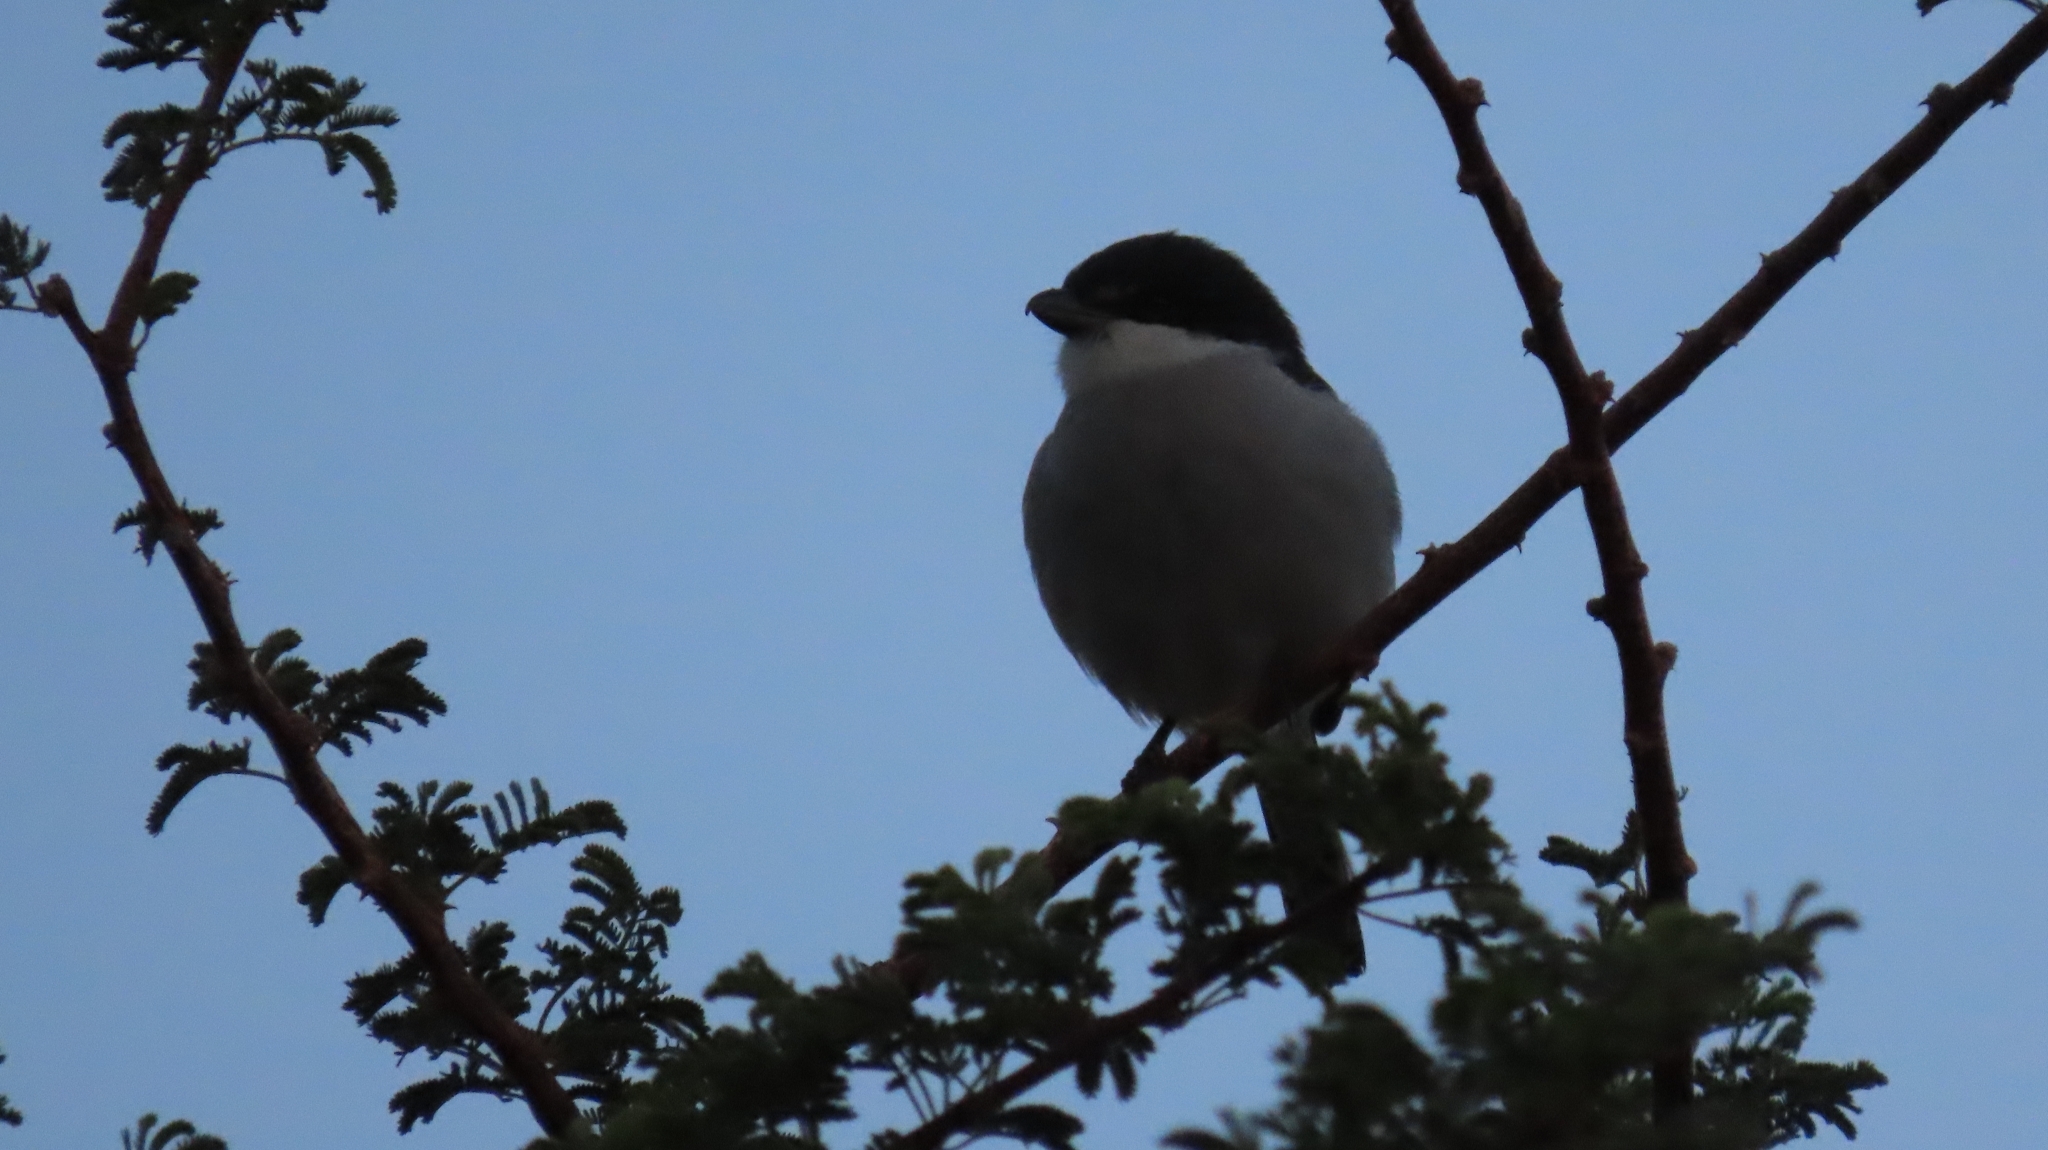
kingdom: Animalia
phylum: Chordata
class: Aves
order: Passeriformes
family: Laniidae
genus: Lanius
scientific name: Lanius collaris
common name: Southern fiscal
